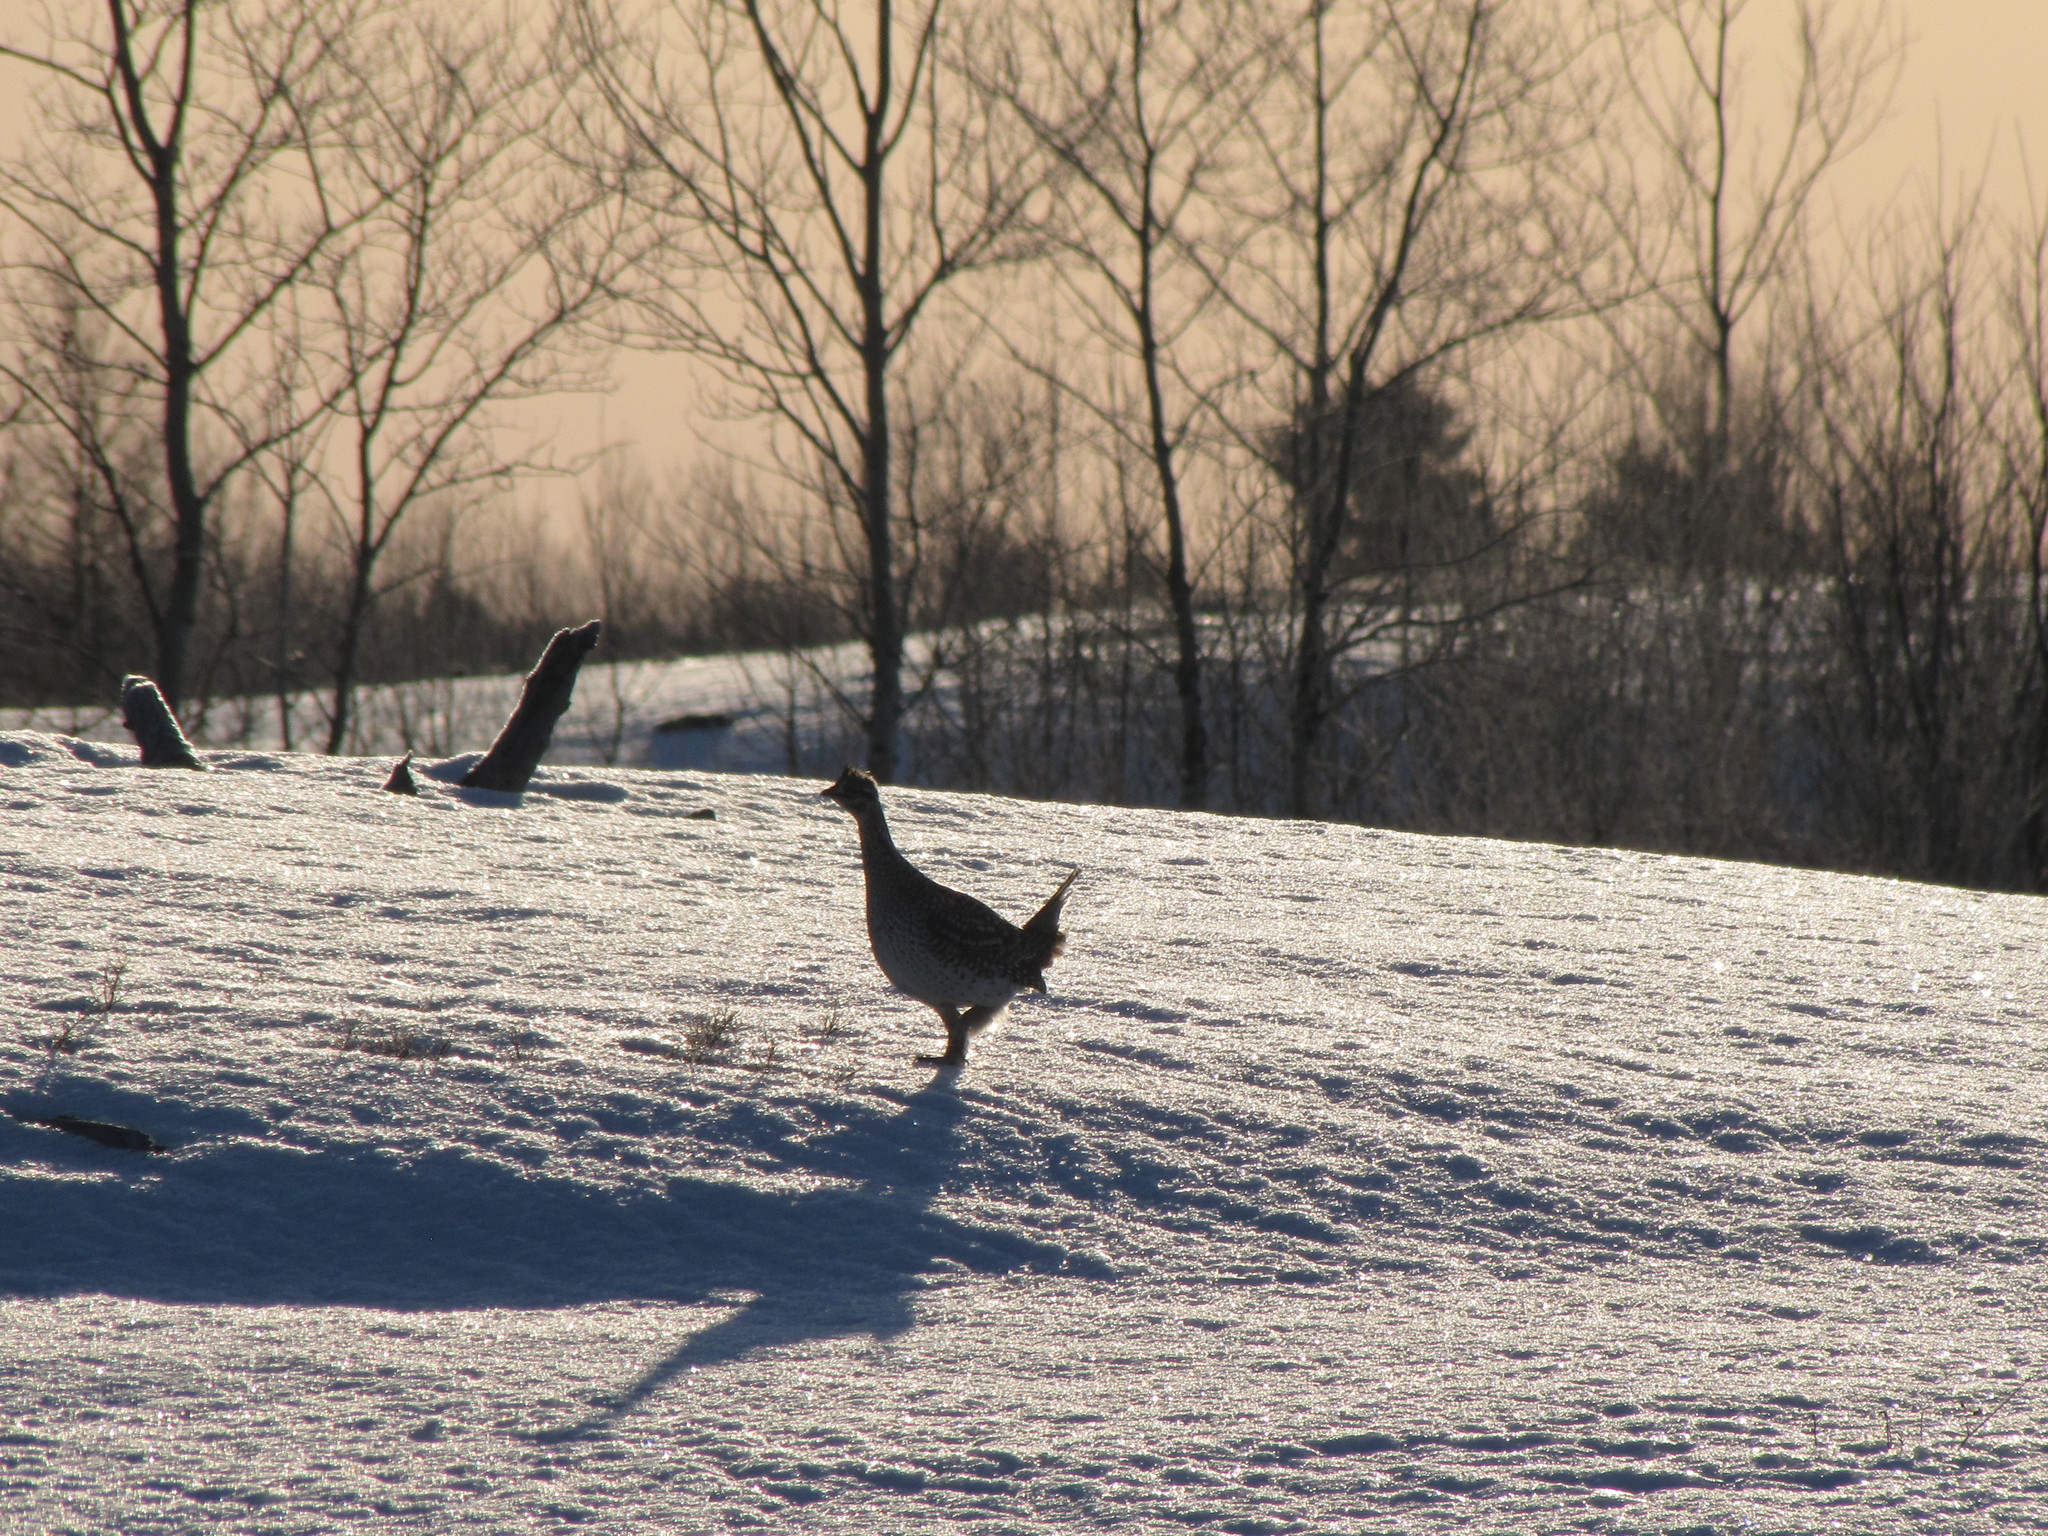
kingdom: Animalia
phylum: Chordata
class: Aves
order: Galliformes
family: Phasianidae
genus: Tympanuchus
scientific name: Tympanuchus phasianellus
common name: Sharp-tailed grouse
